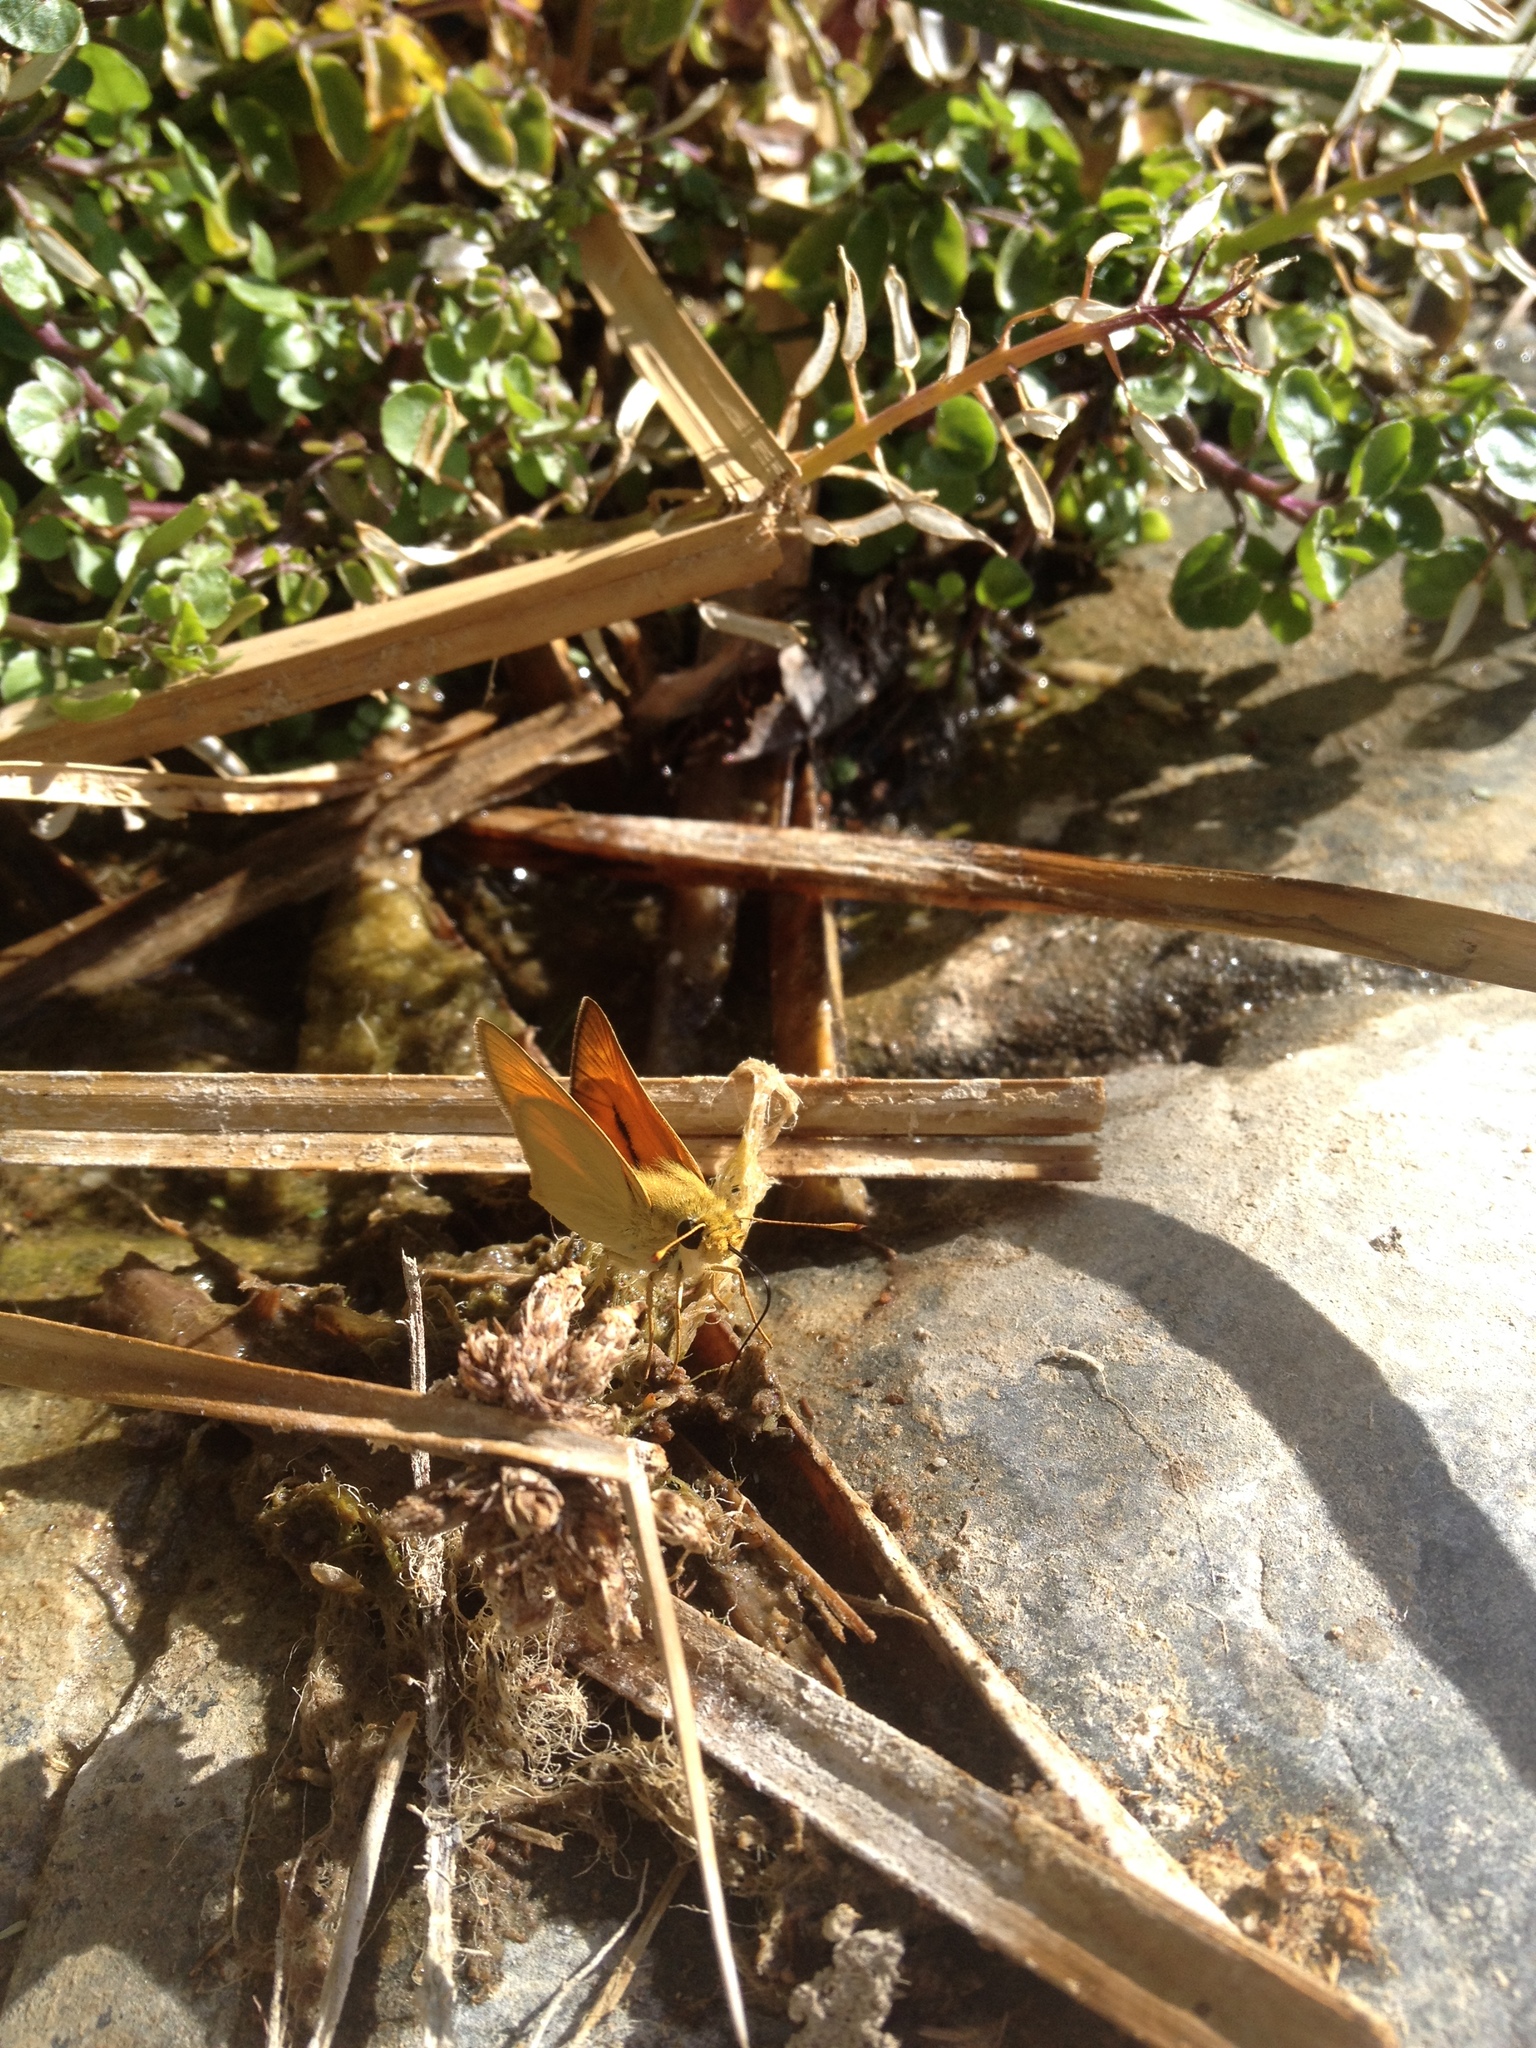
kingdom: Animalia
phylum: Arthropoda
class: Insecta
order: Lepidoptera
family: Hesperiidae
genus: Ochlodes
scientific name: Ochlodes sylvanoides
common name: Woodland skipper
